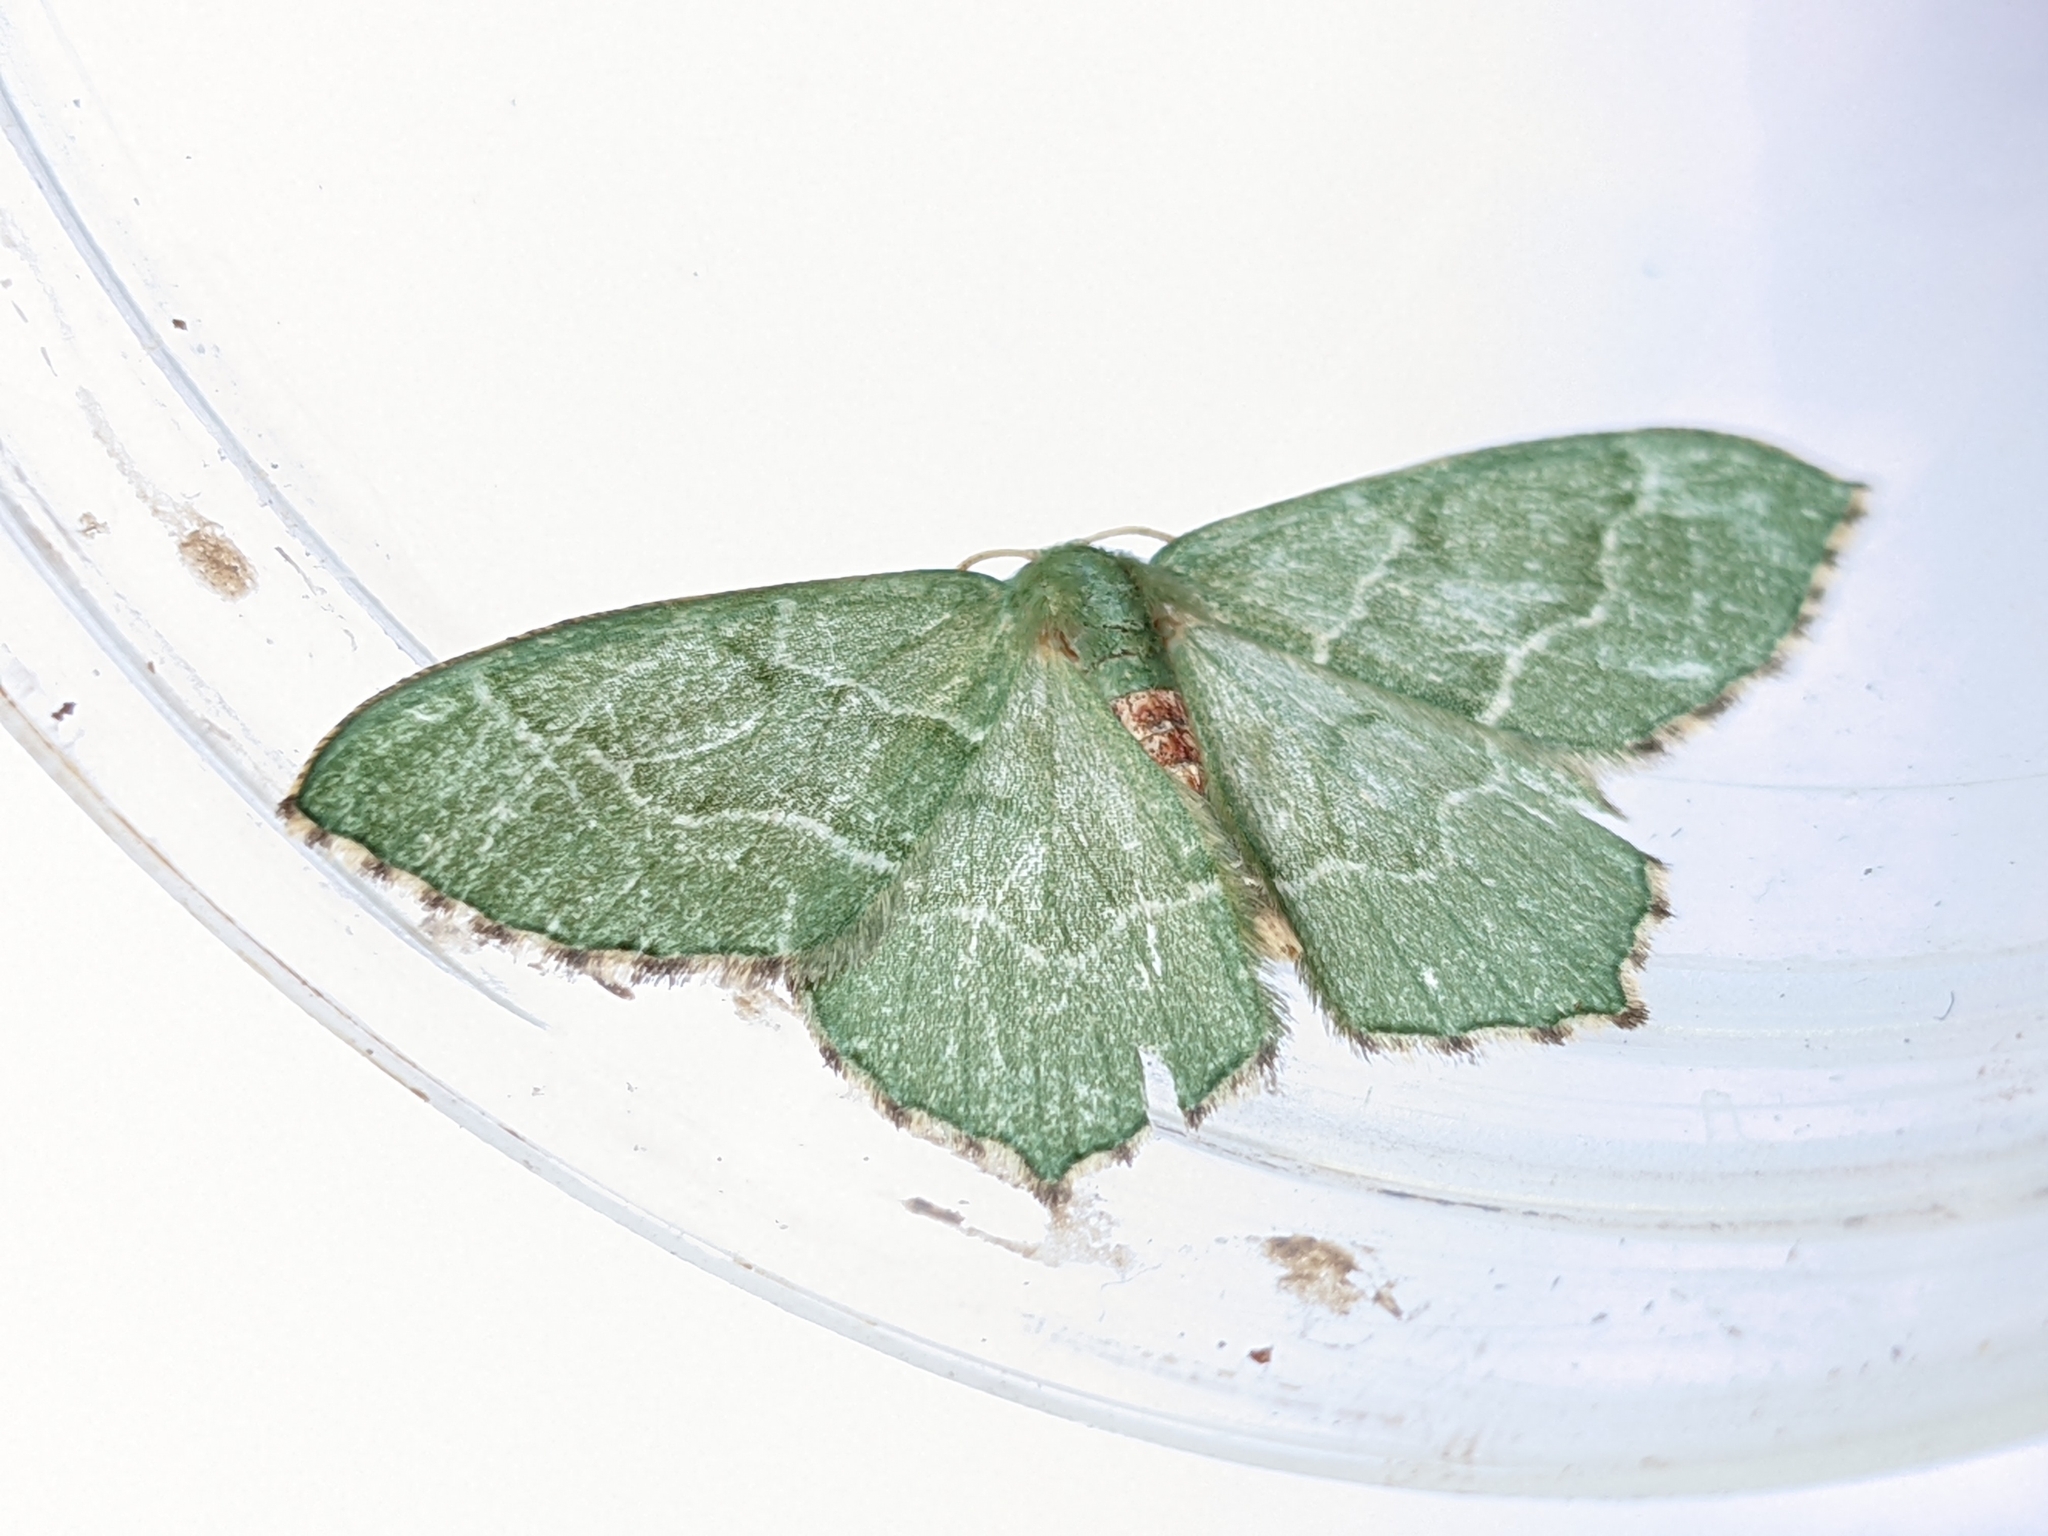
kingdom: Animalia
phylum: Arthropoda
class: Insecta
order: Lepidoptera
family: Geometridae
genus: Hemithea
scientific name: Hemithea aestivaria
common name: Common emerald
